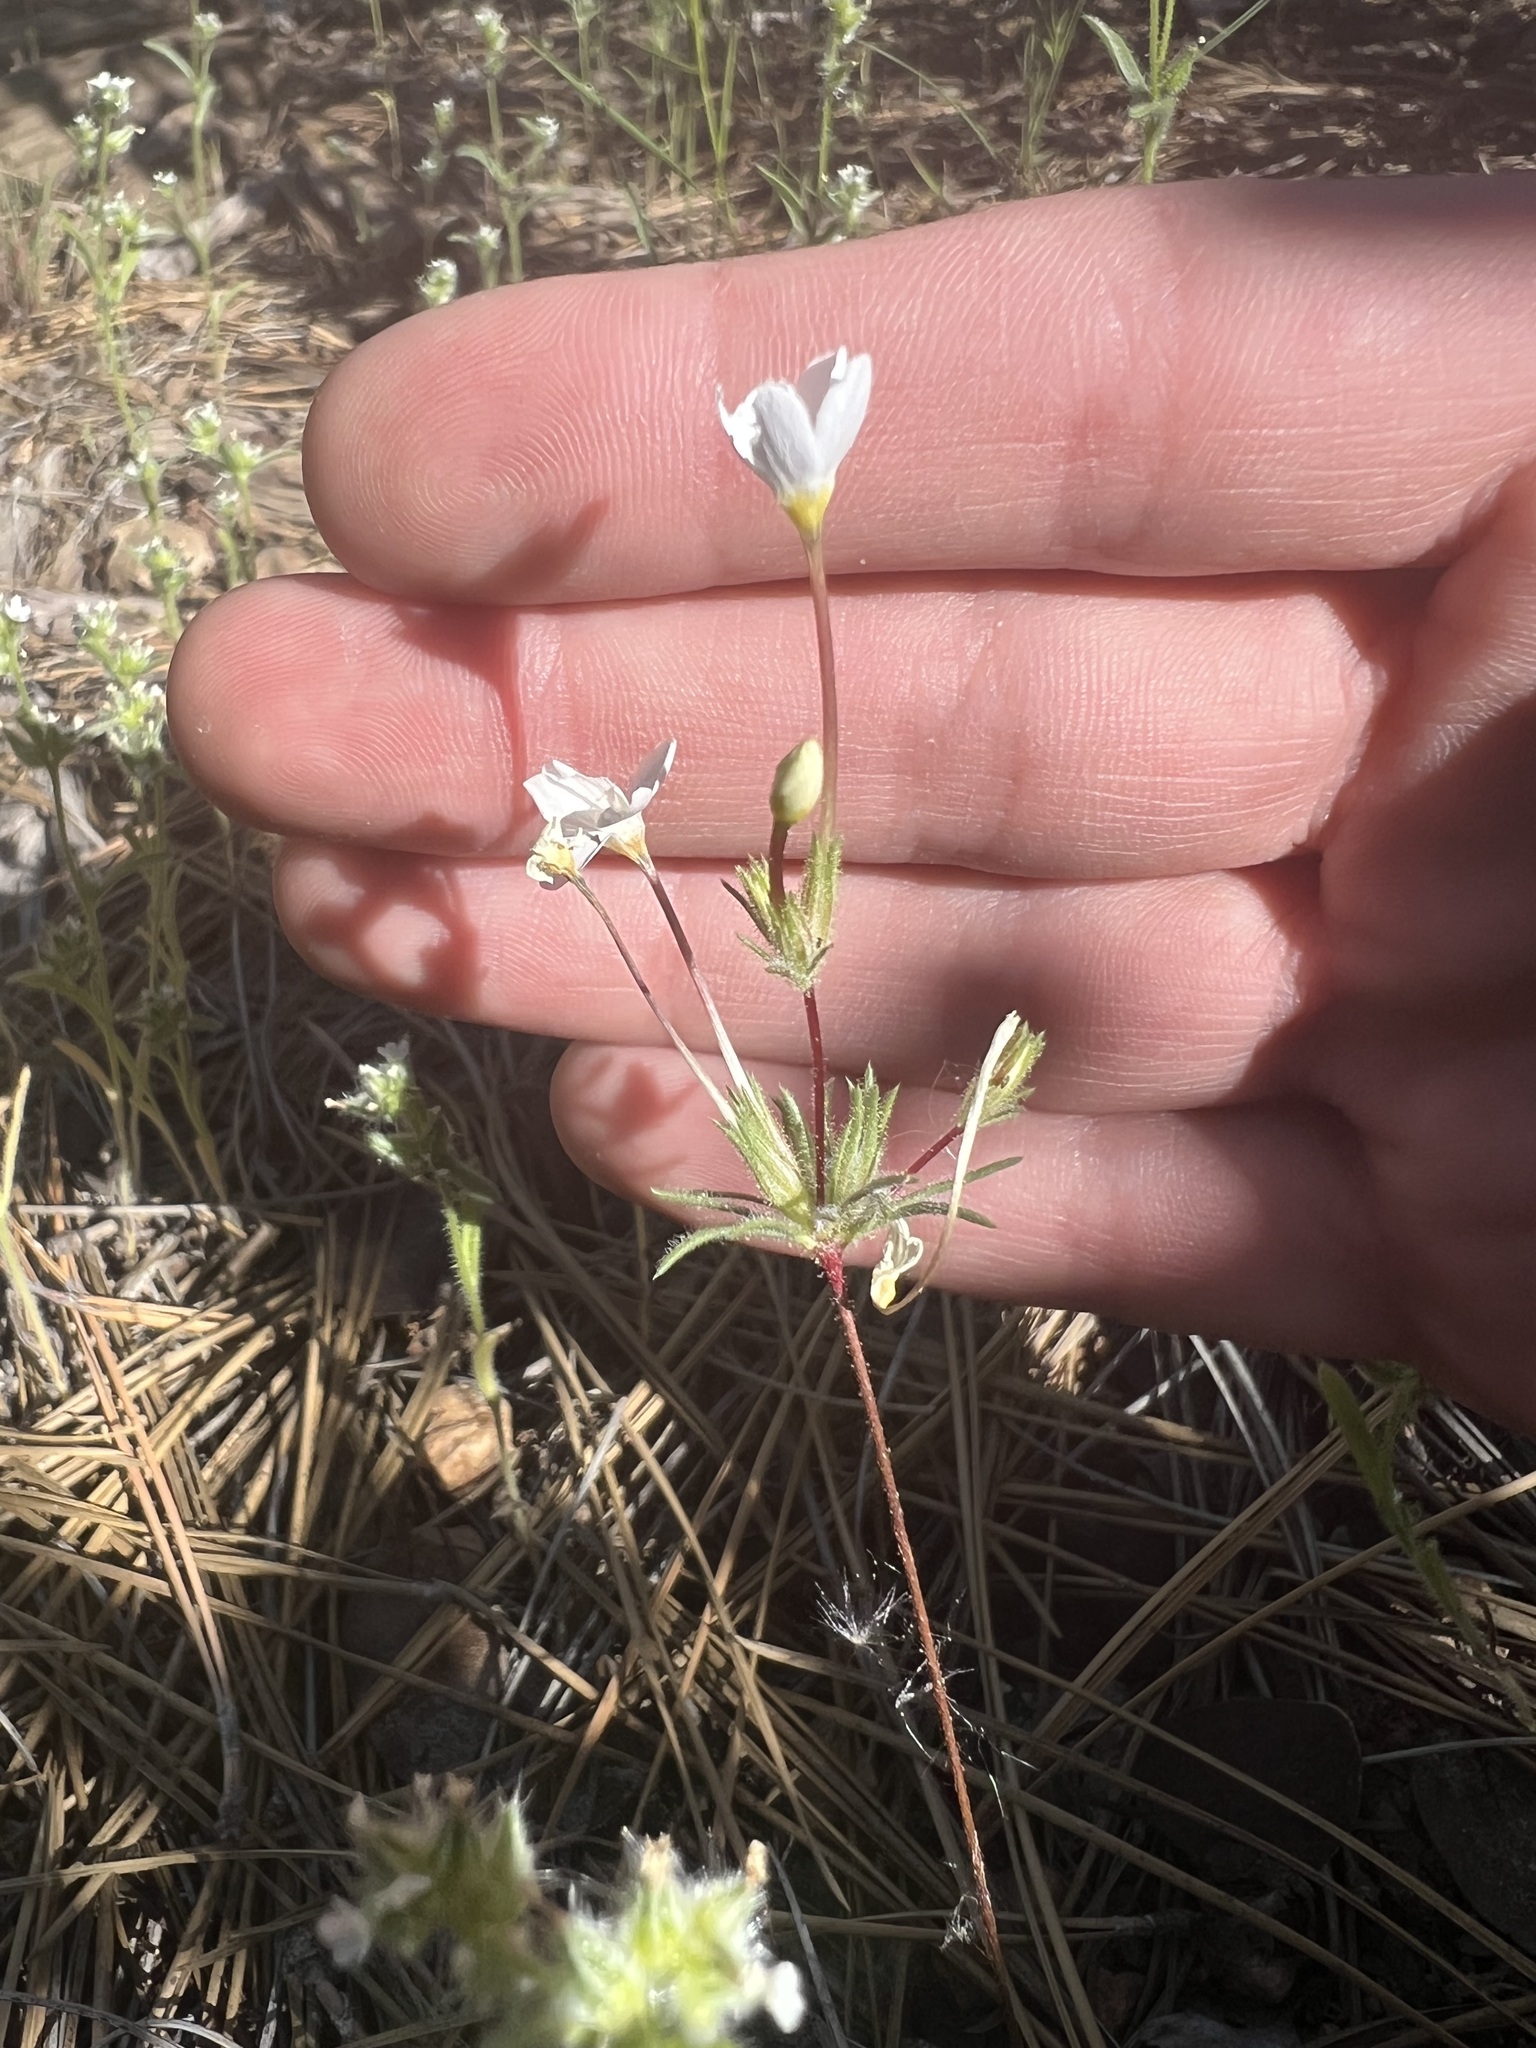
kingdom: Plantae
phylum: Tracheophyta
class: Magnoliopsida
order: Ericales
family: Polemoniaceae
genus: Leptosiphon
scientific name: Leptosiphon breviculus
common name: Mojave linanthus
